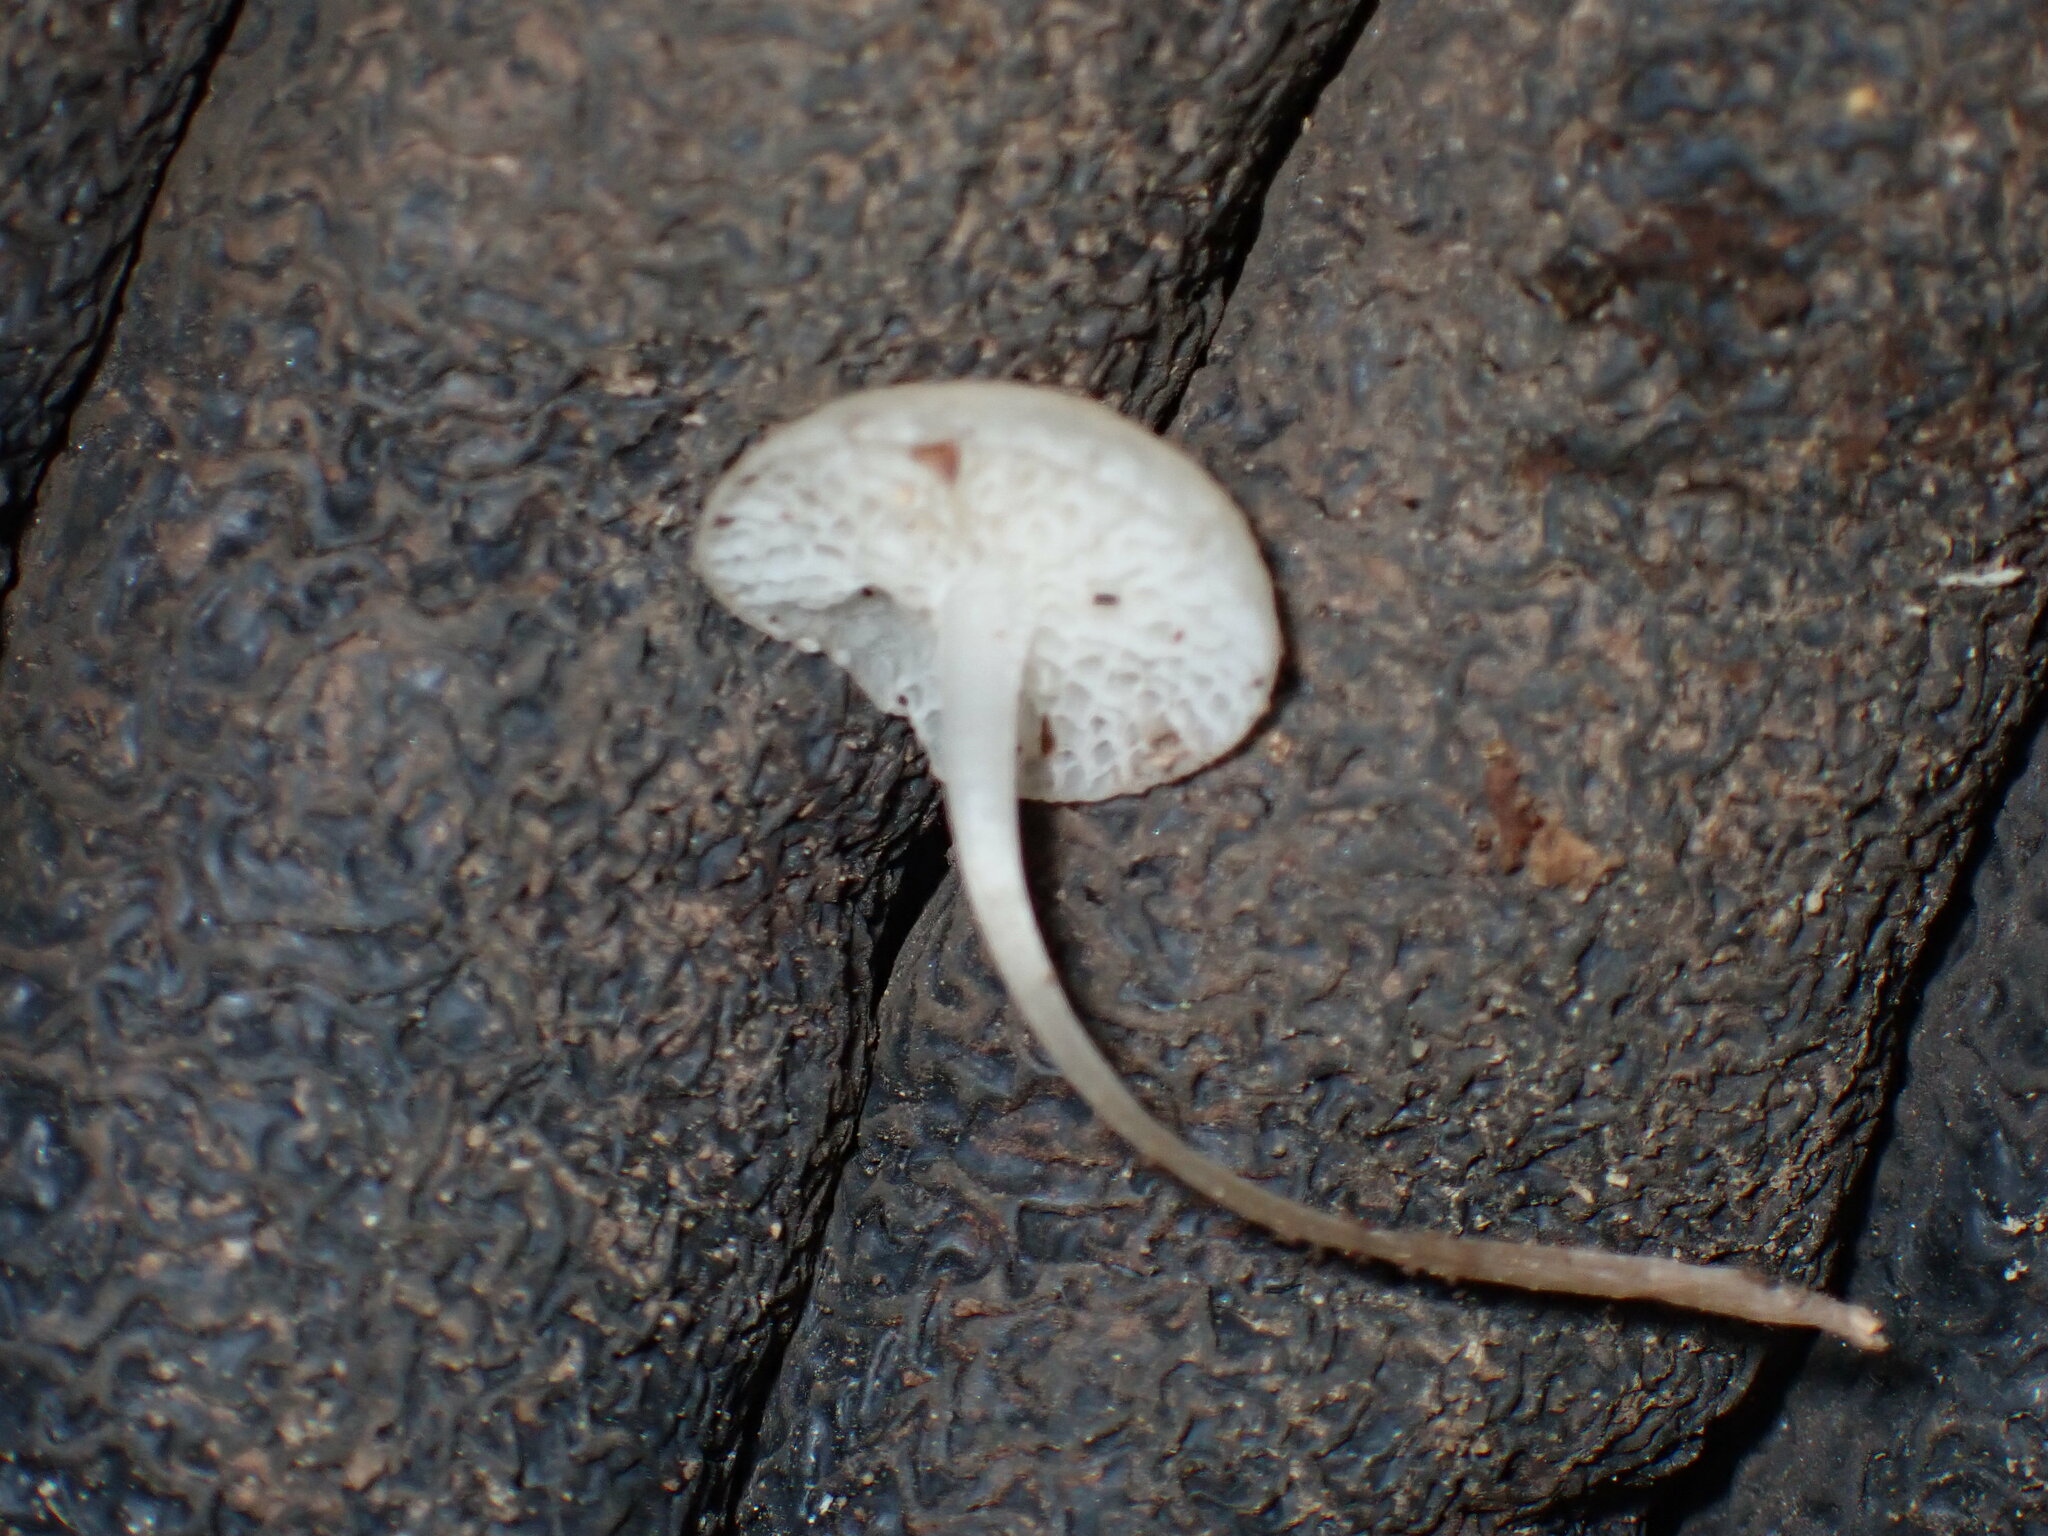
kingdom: Fungi
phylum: Basidiomycota
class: Agaricomycetes
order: Agaricales
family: Mycenaceae
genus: Filoboletus
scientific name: Filoboletus manipularis
